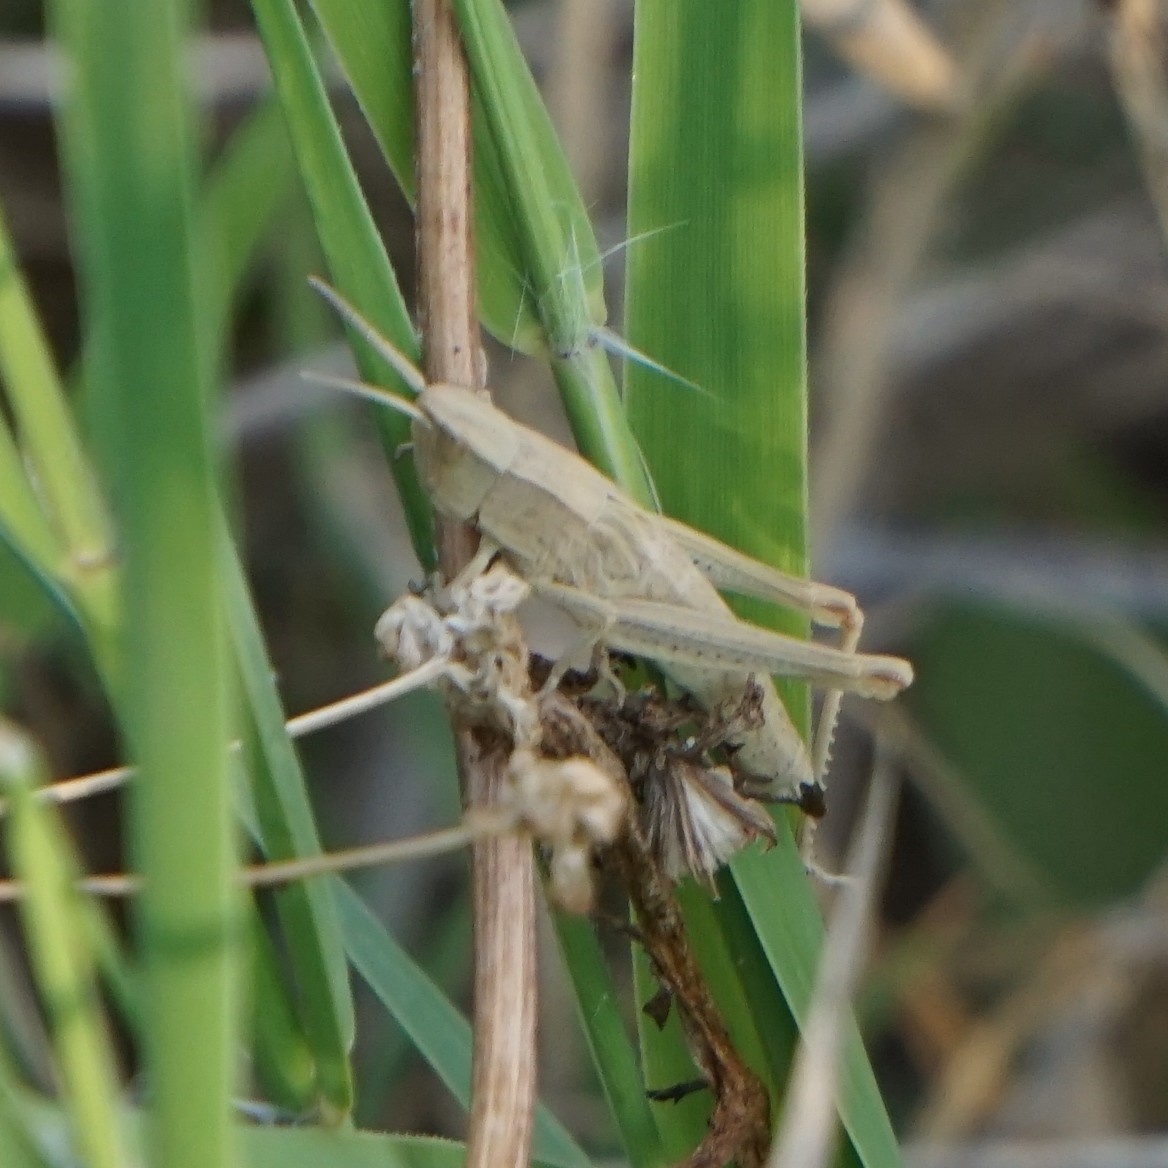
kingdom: Animalia
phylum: Arthropoda
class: Insecta
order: Orthoptera
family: Acrididae
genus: Chrysochraon
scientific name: Chrysochraon dispar
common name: Large gold grasshopper
